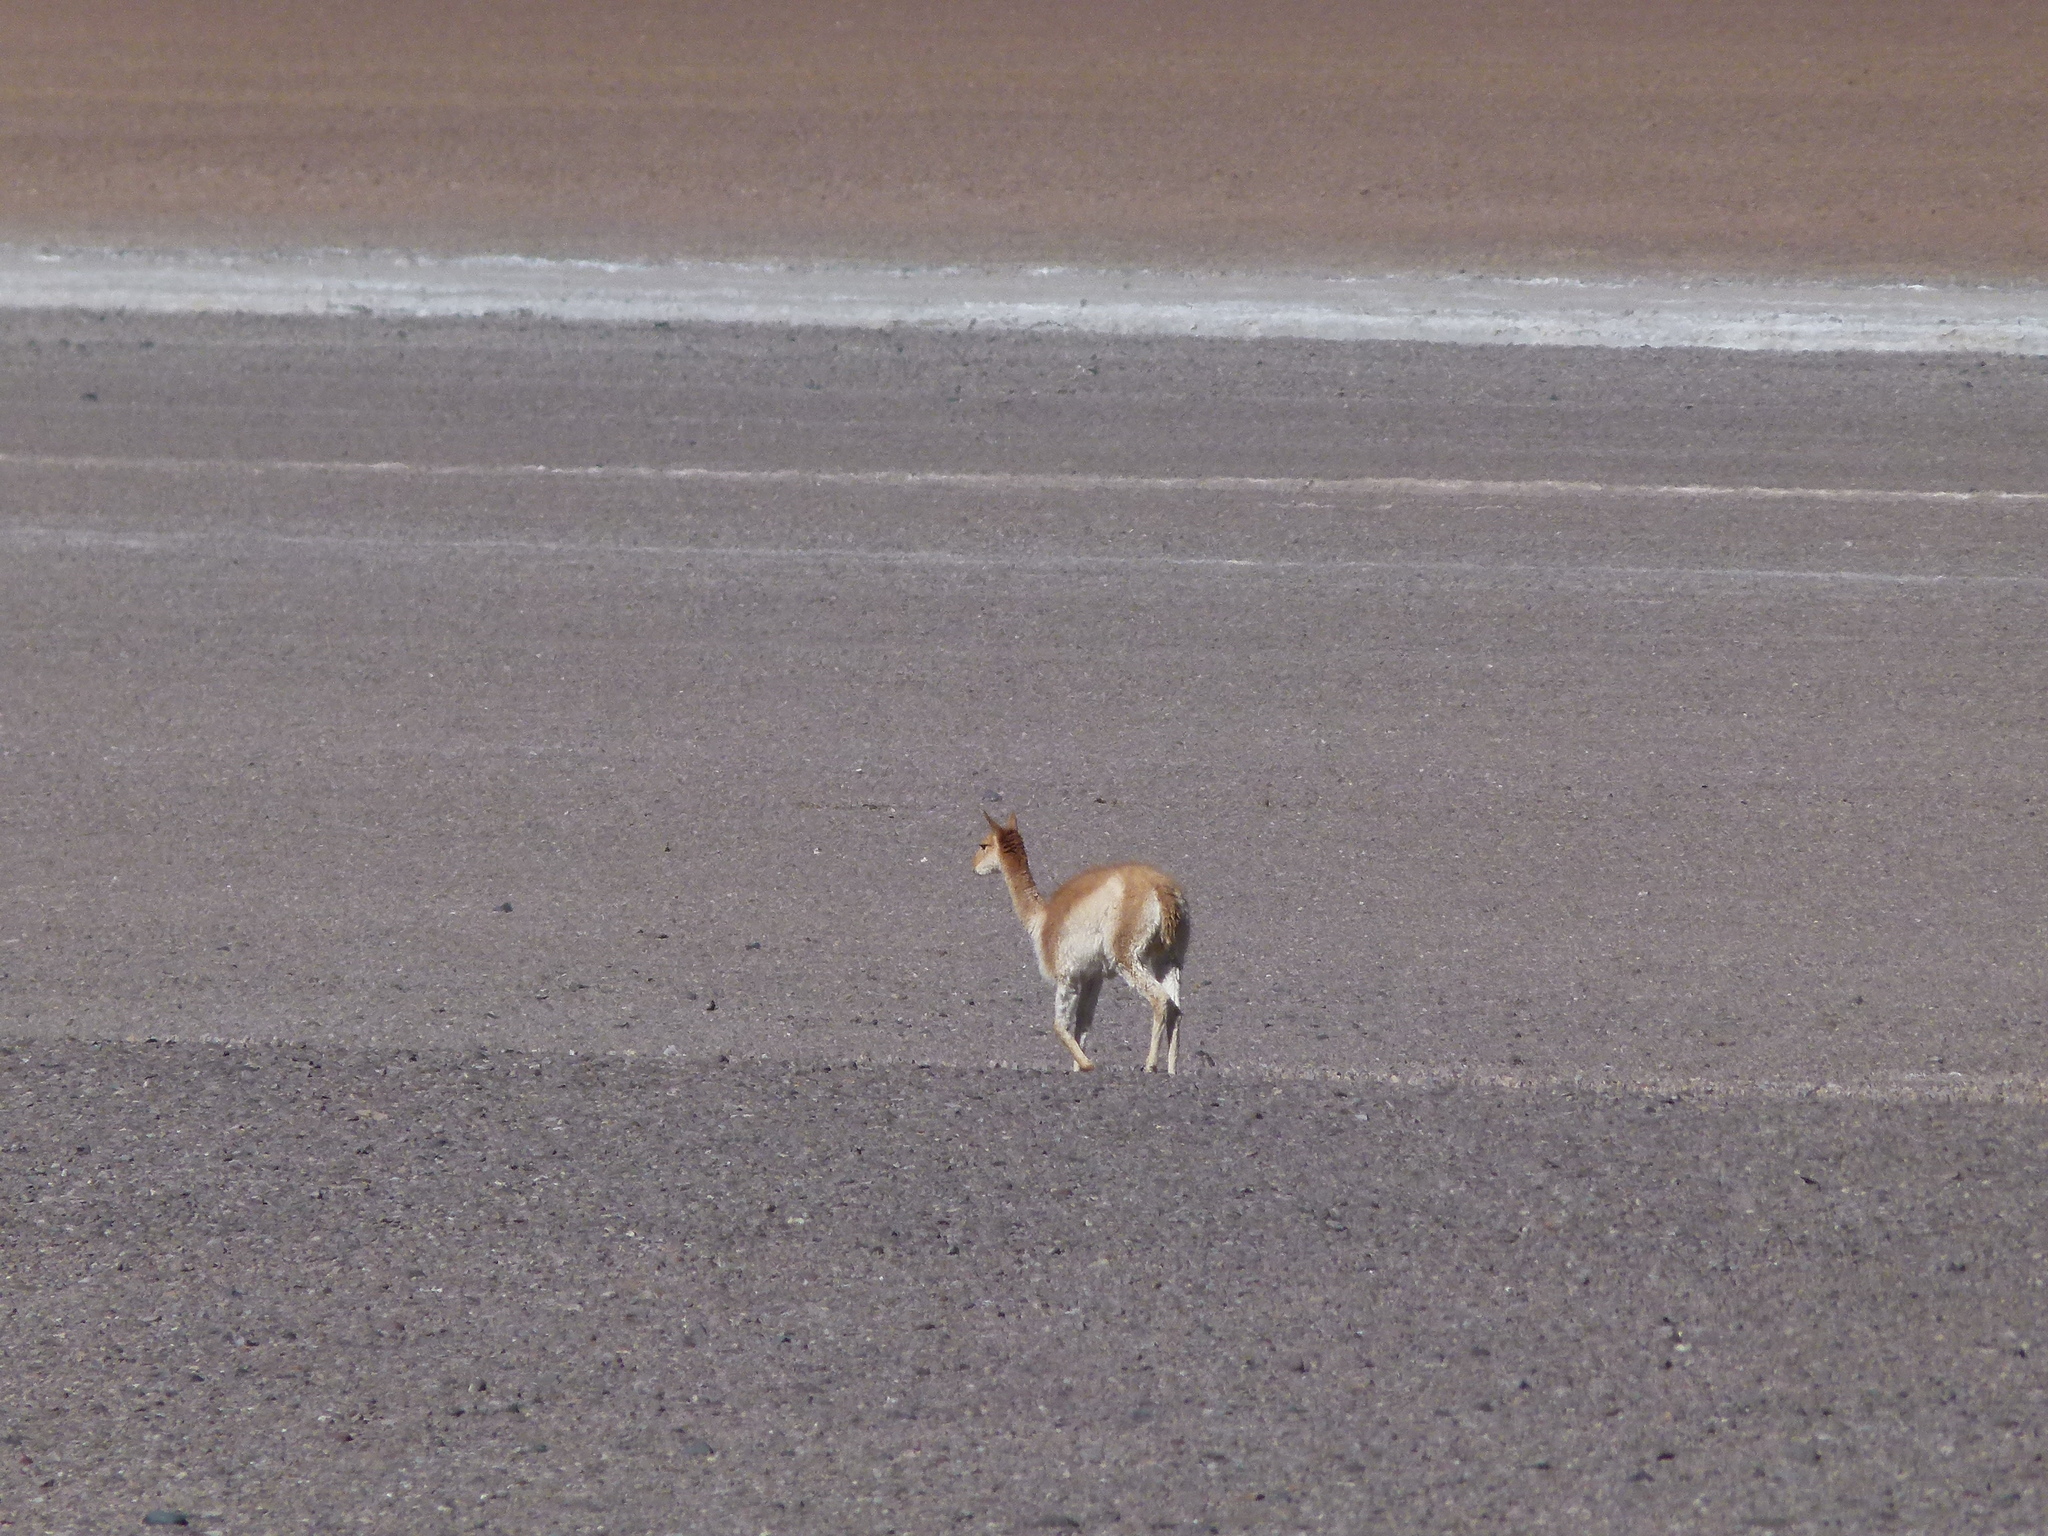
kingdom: Animalia
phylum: Chordata
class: Mammalia
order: Artiodactyla
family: Camelidae
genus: Vicugna
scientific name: Vicugna vicugna
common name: Vicugna
